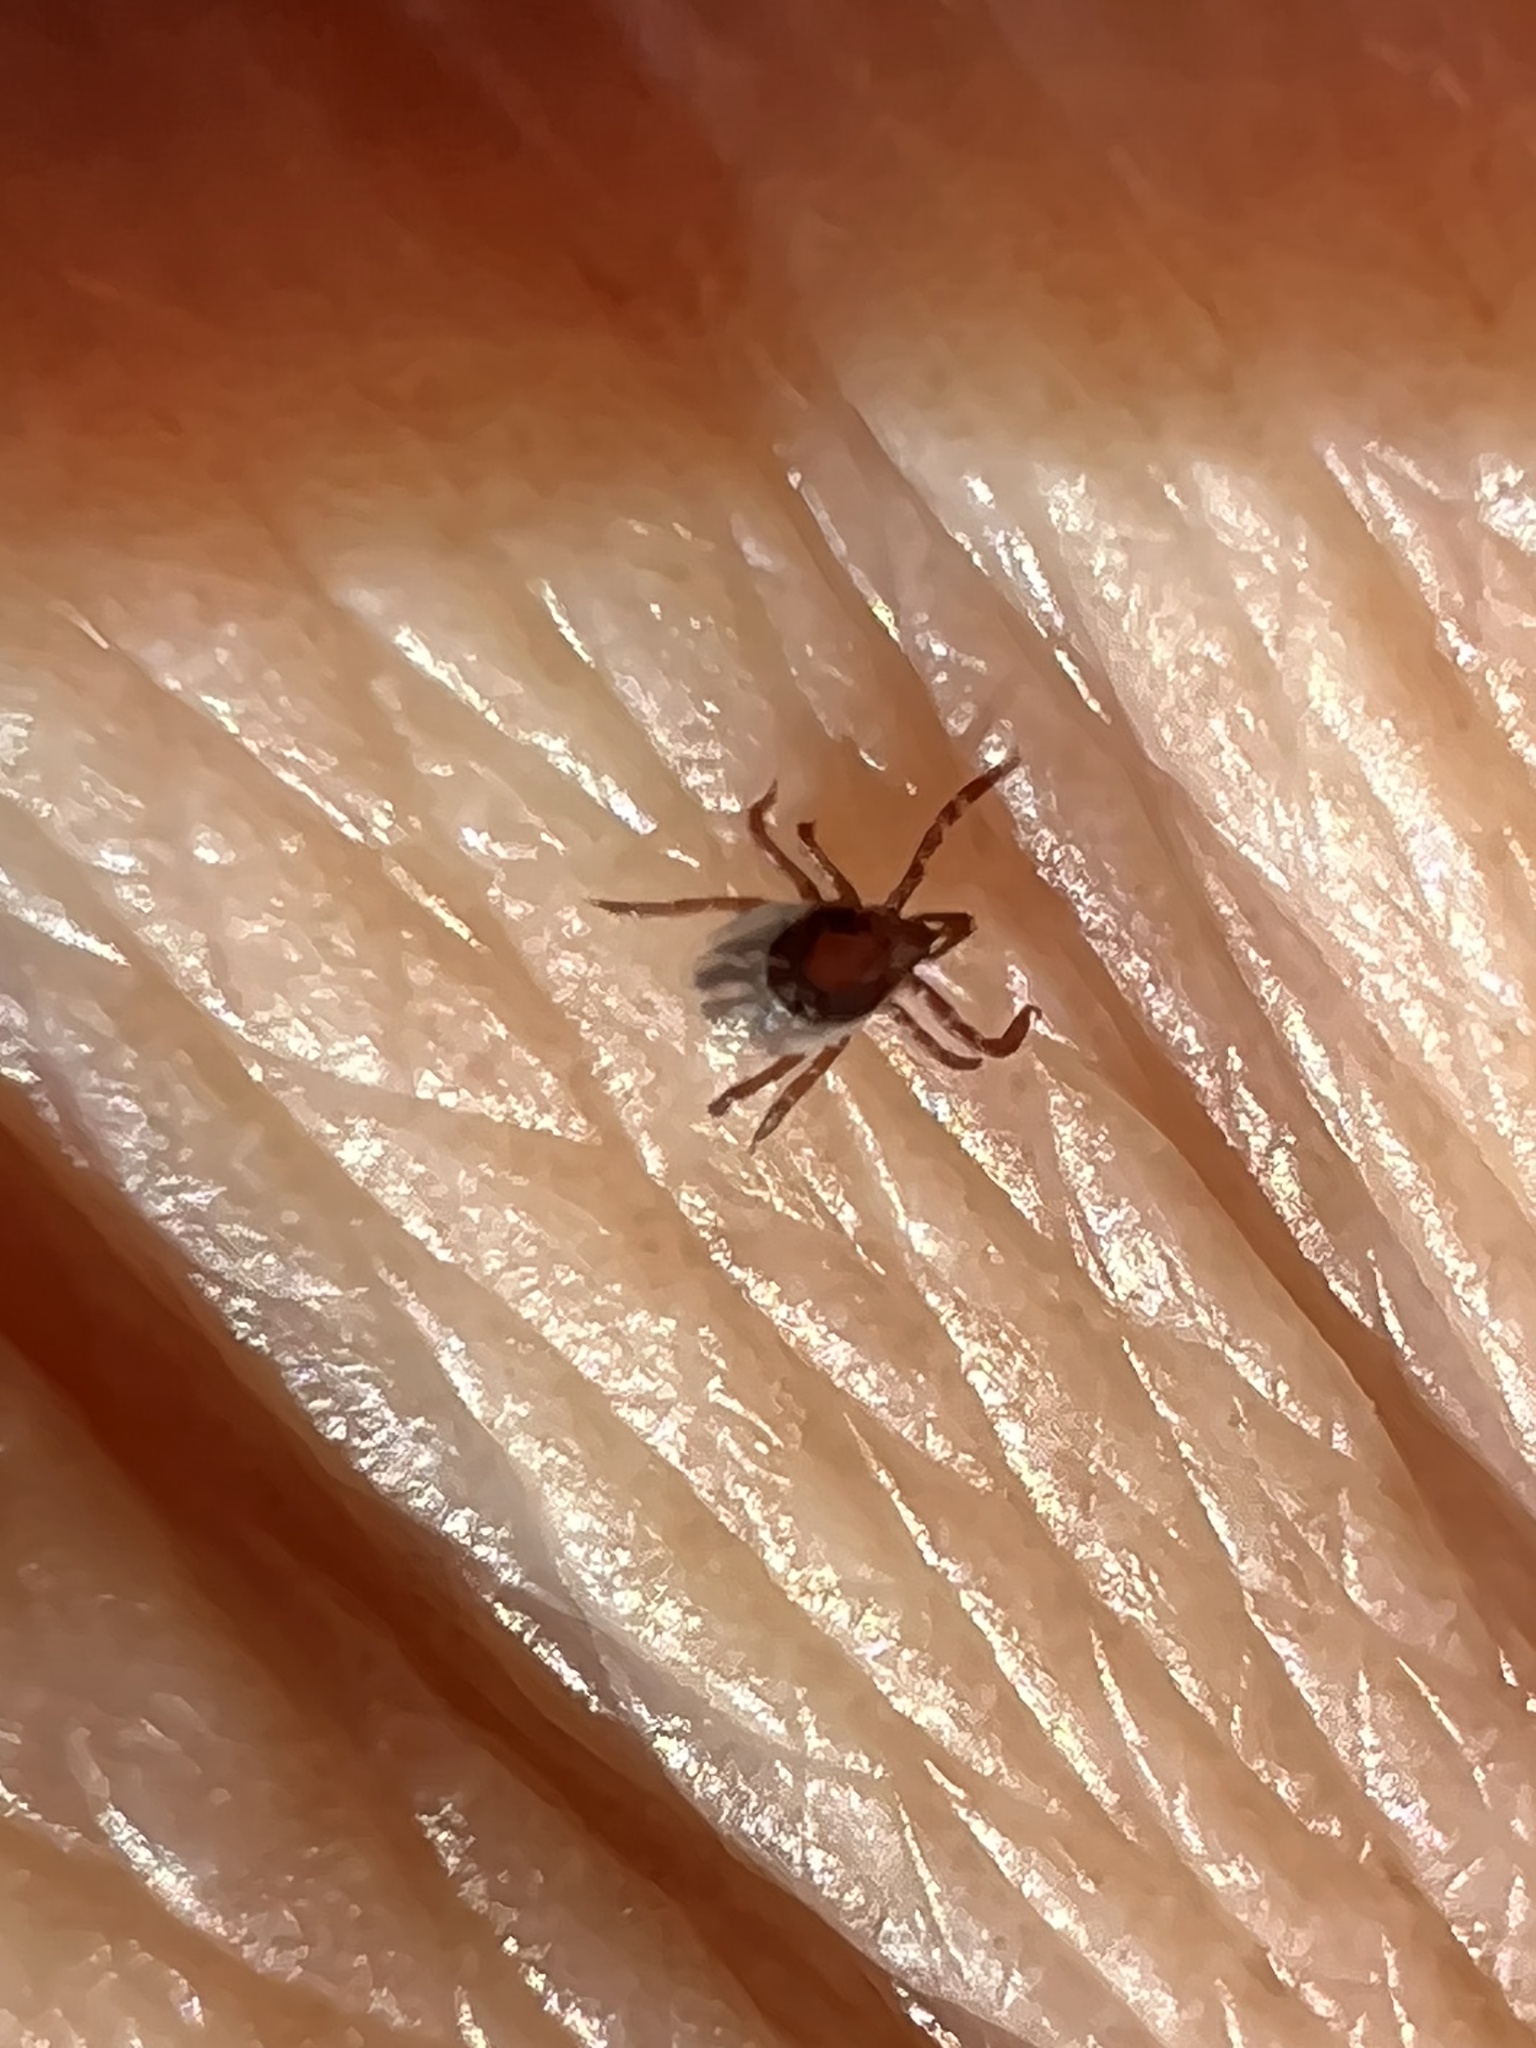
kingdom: Animalia
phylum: Arthropoda
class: Arachnida
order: Ixodida
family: Ixodidae
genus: Ixodes
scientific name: Ixodes scapularis
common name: Black legged tick
